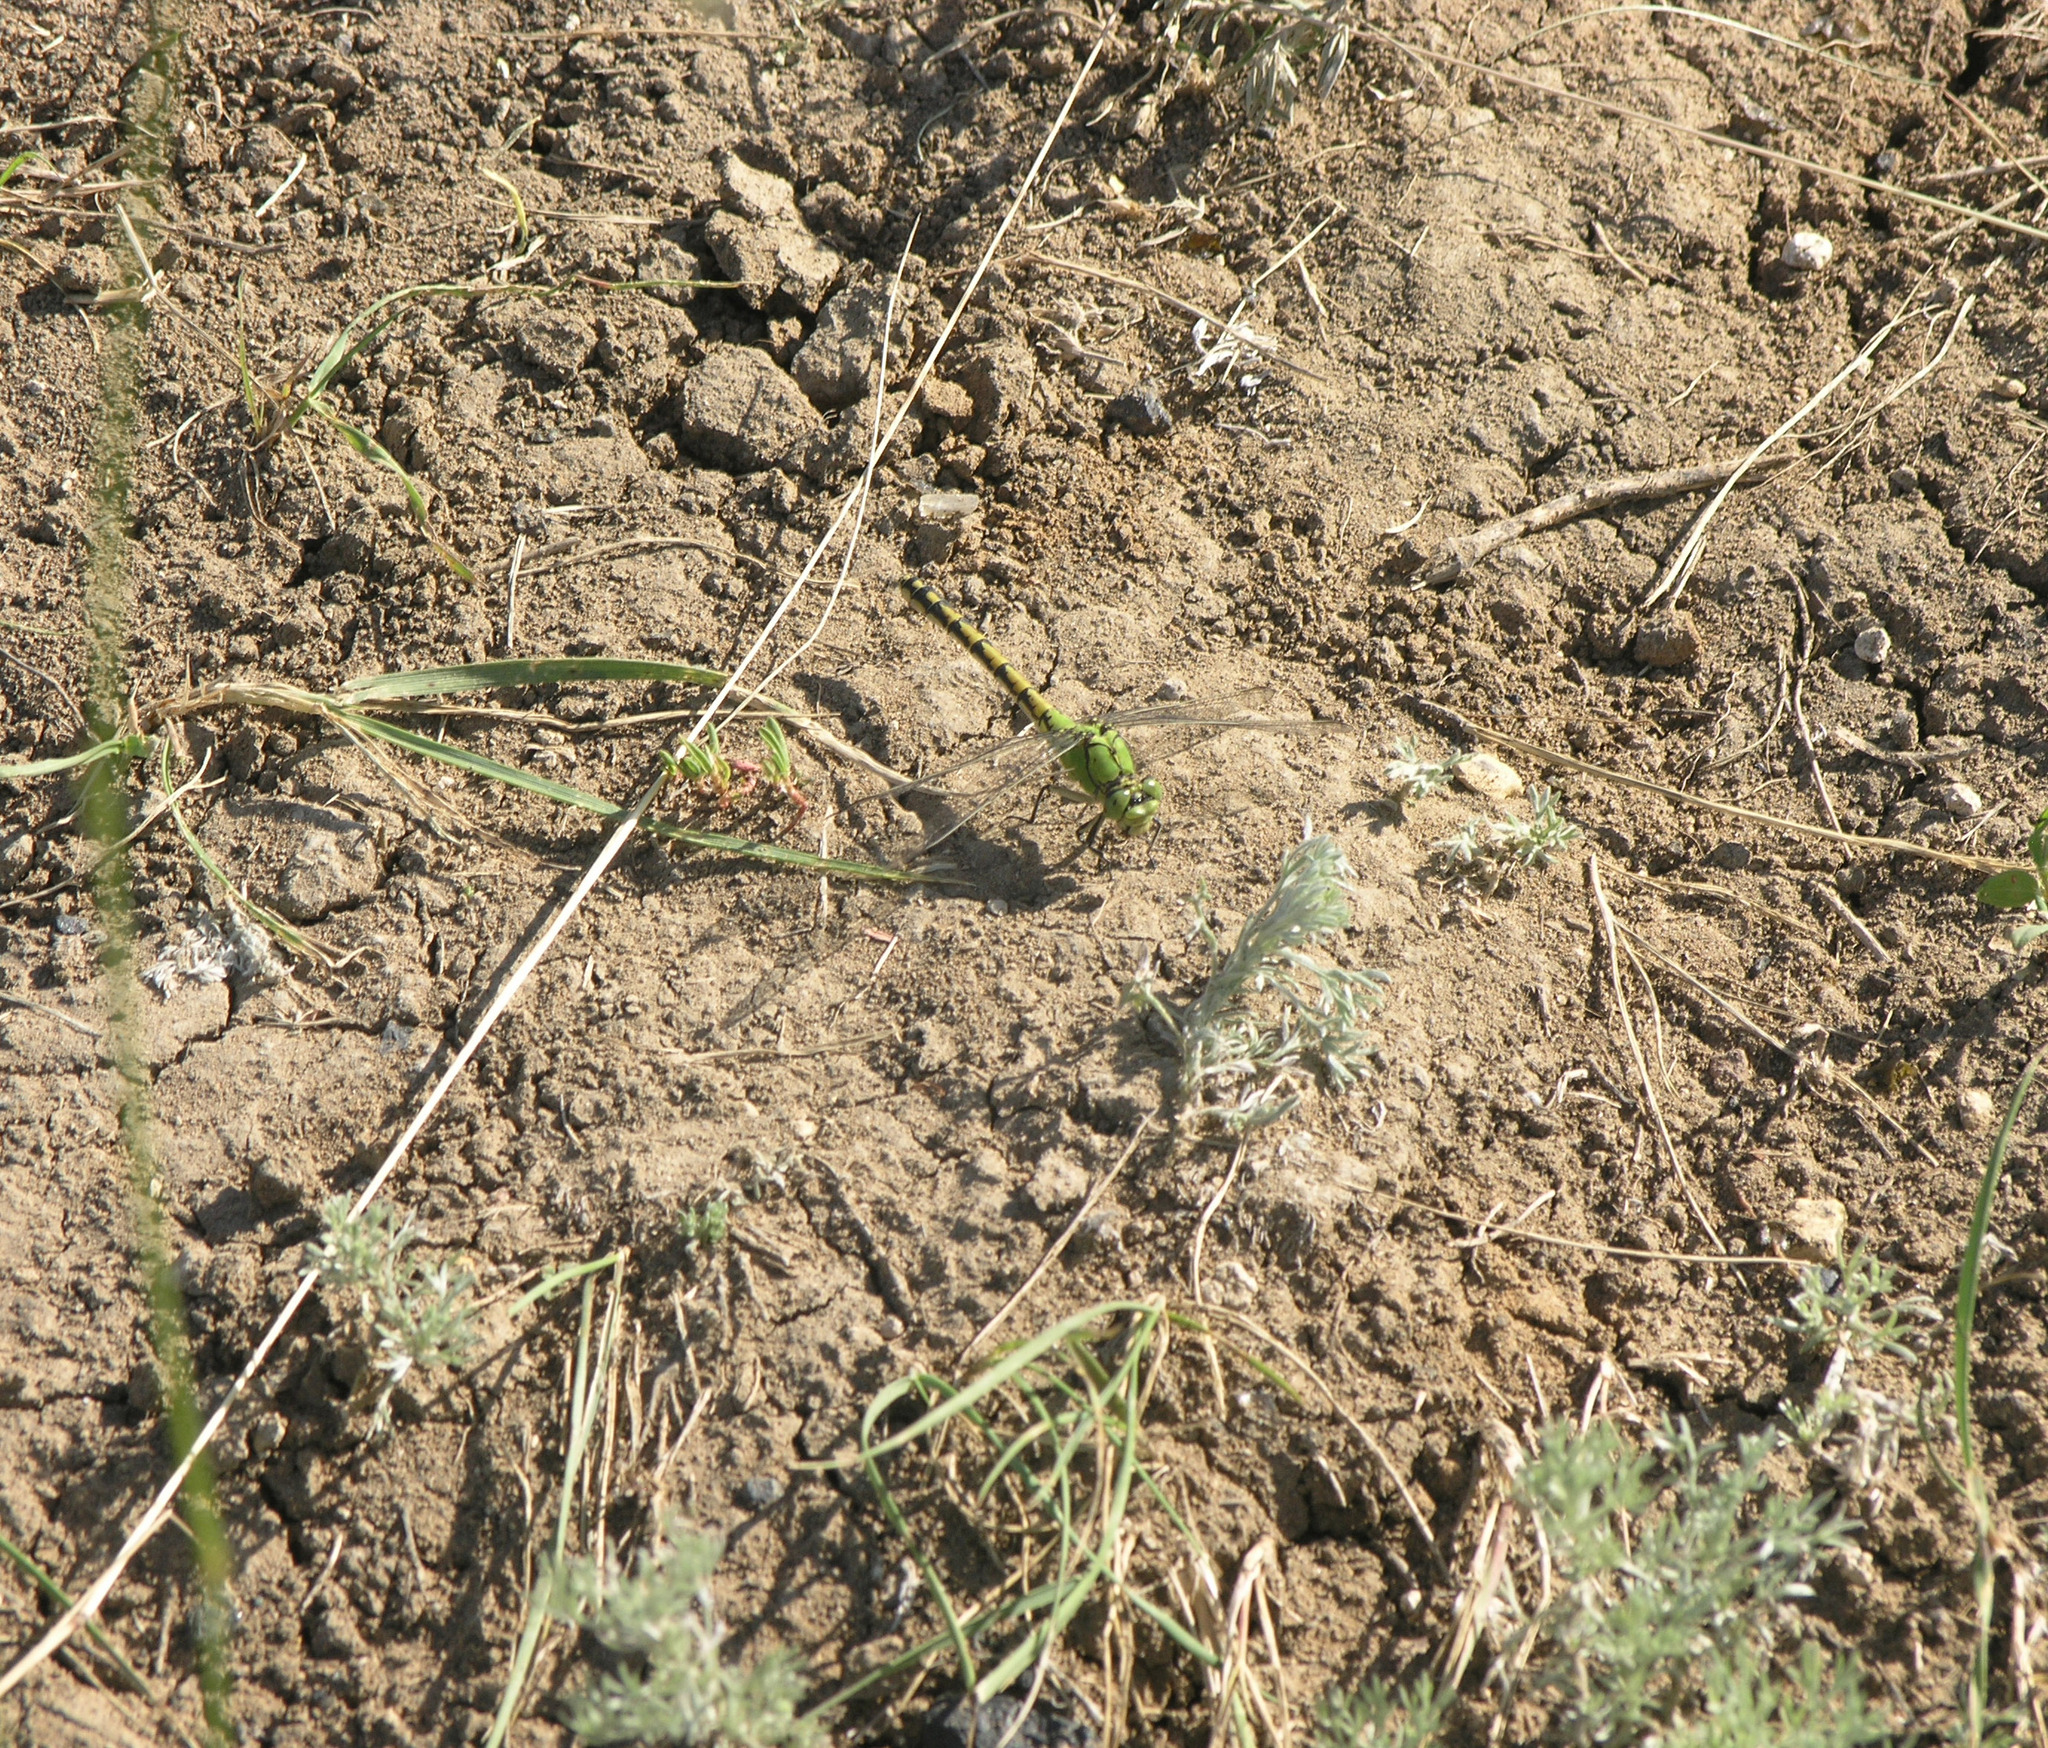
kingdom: Animalia
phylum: Arthropoda
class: Insecta
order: Odonata
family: Gomphidae
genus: Ophiogomphus
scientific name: Ophiogomphus cecilia
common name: Green snaketail
